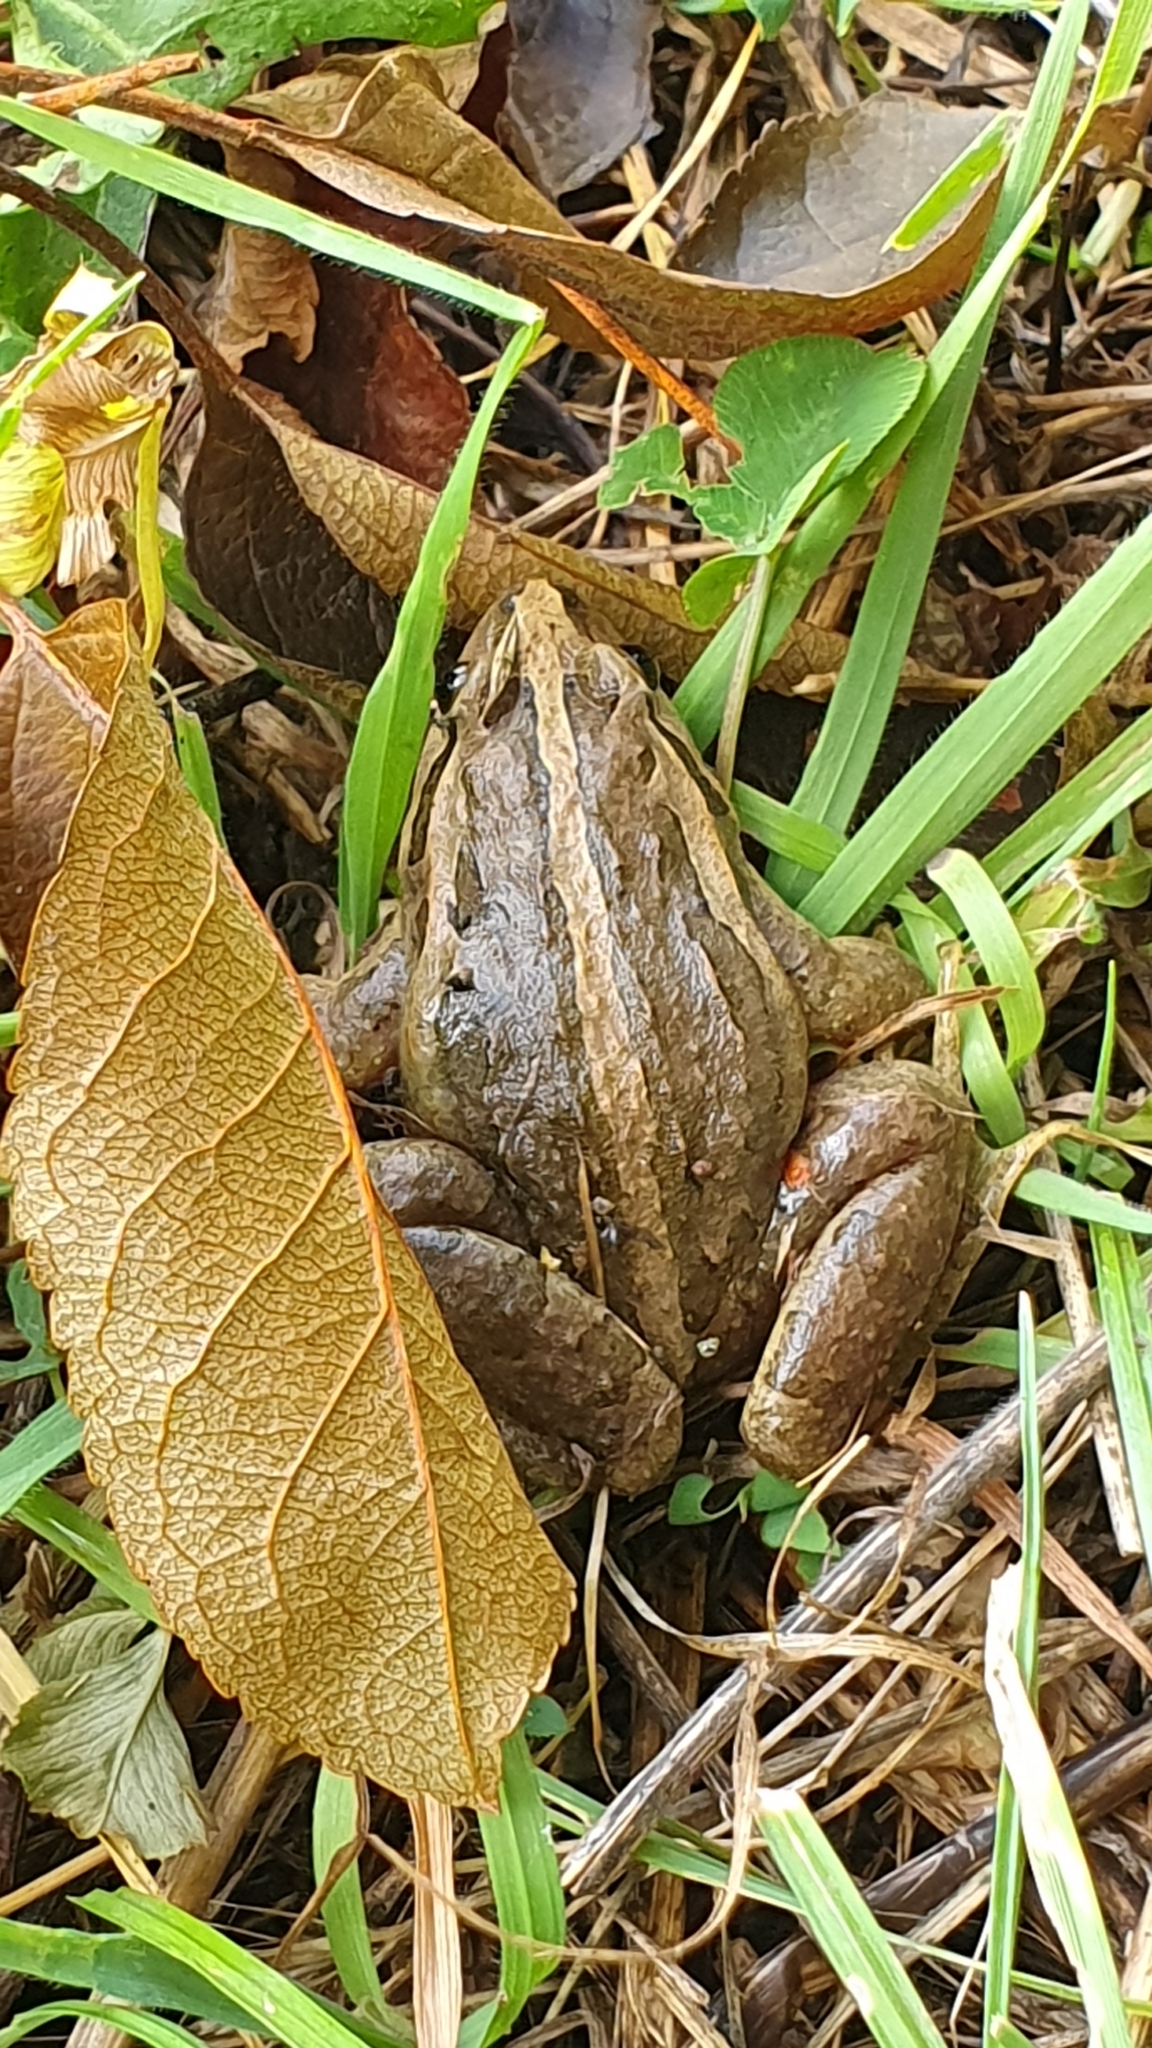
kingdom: Animalia
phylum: Chordata
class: Amphibia
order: Anura
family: Alytidae
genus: Discoglossus
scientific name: Discoglossus galganoi
